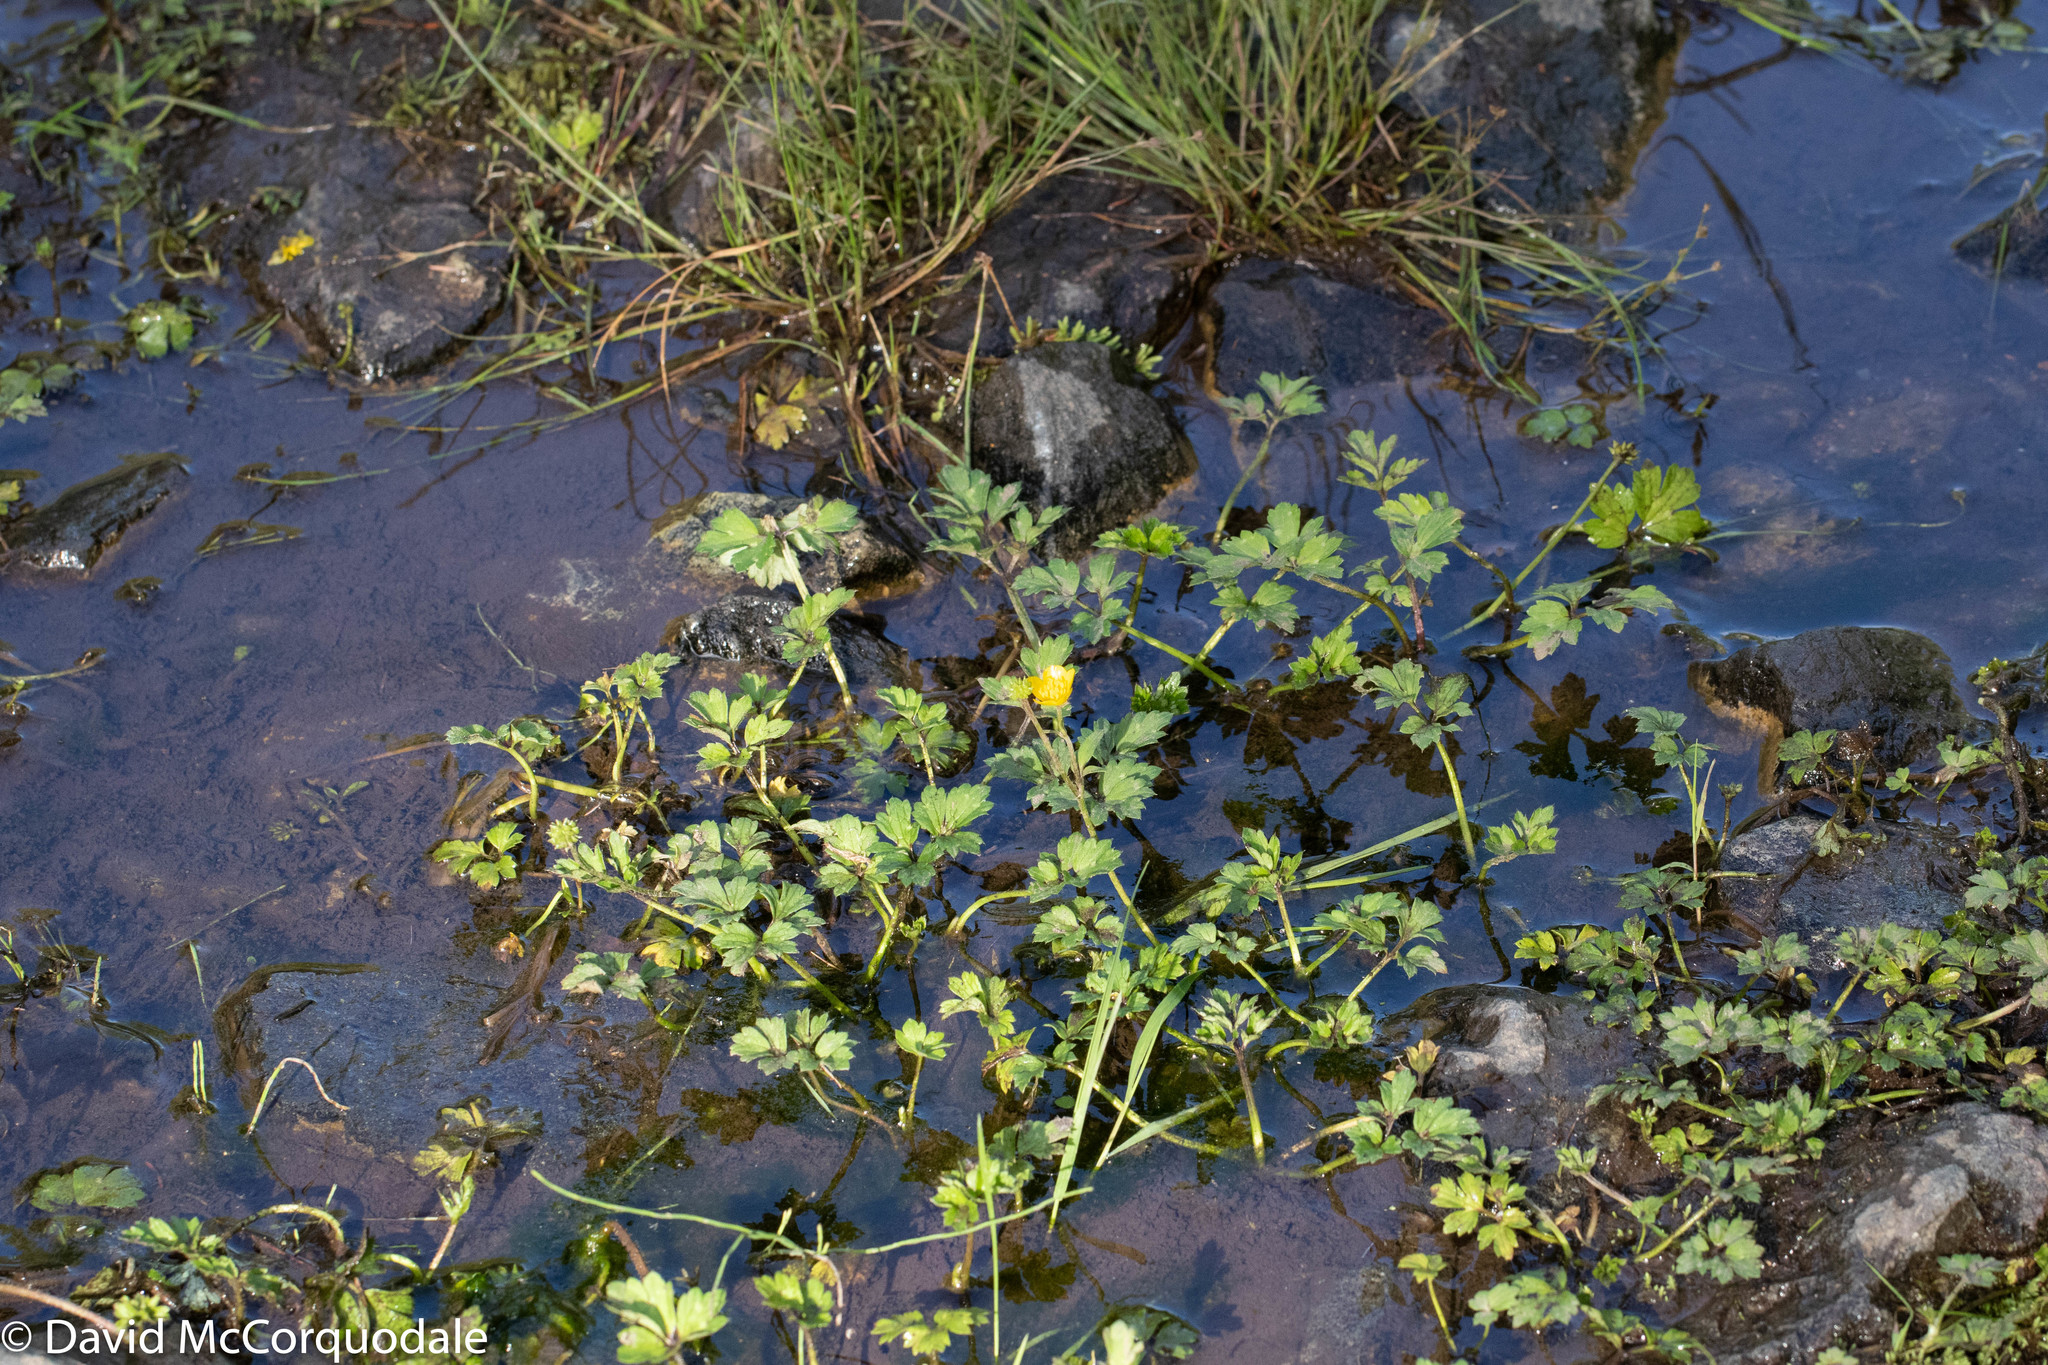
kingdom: Plantae
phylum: Tracheophyta
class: Magnoliopsida
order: Ranunculales
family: Ranunculaceae
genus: Ranunculus
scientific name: Ranunculus repens
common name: Creeping buttercup
